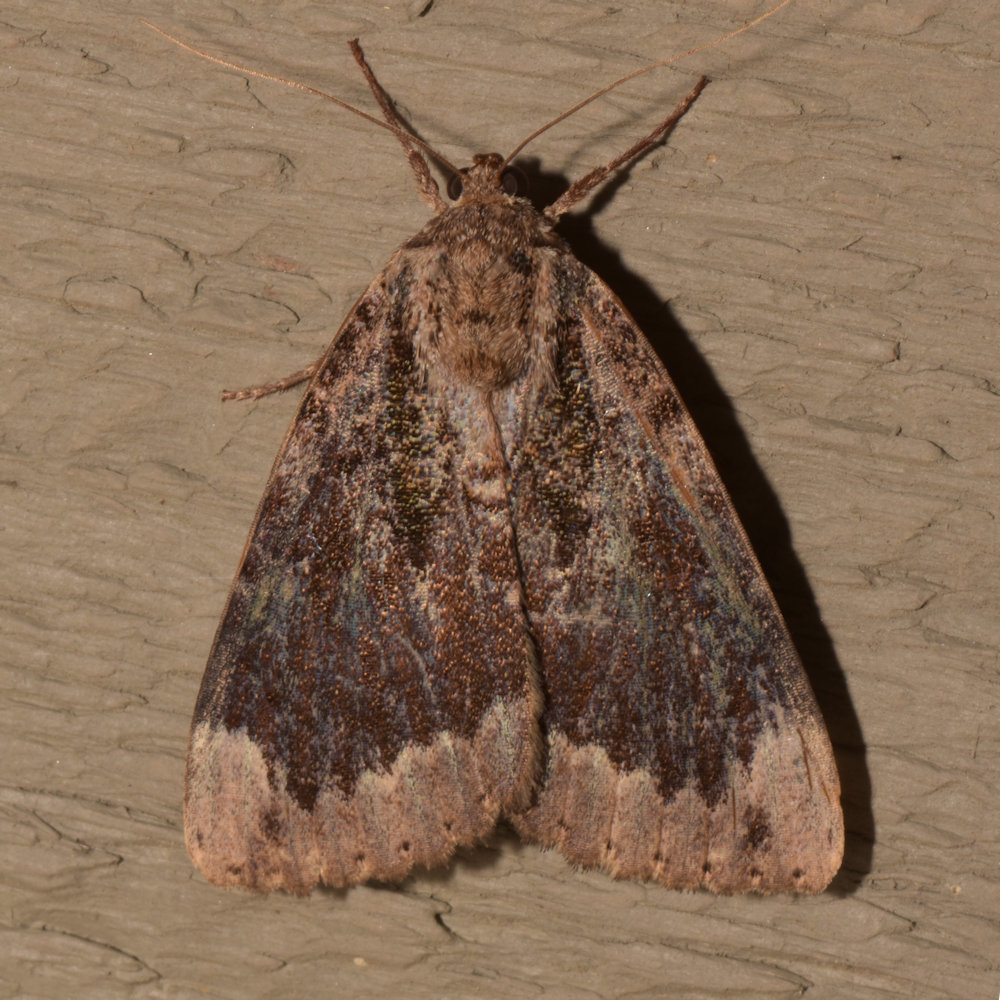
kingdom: Animalia
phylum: Arthropoda
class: Insecta
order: Lepidoptera
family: Erebidae
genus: Catocala
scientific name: Catocala innubens
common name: Betrothed underwing
